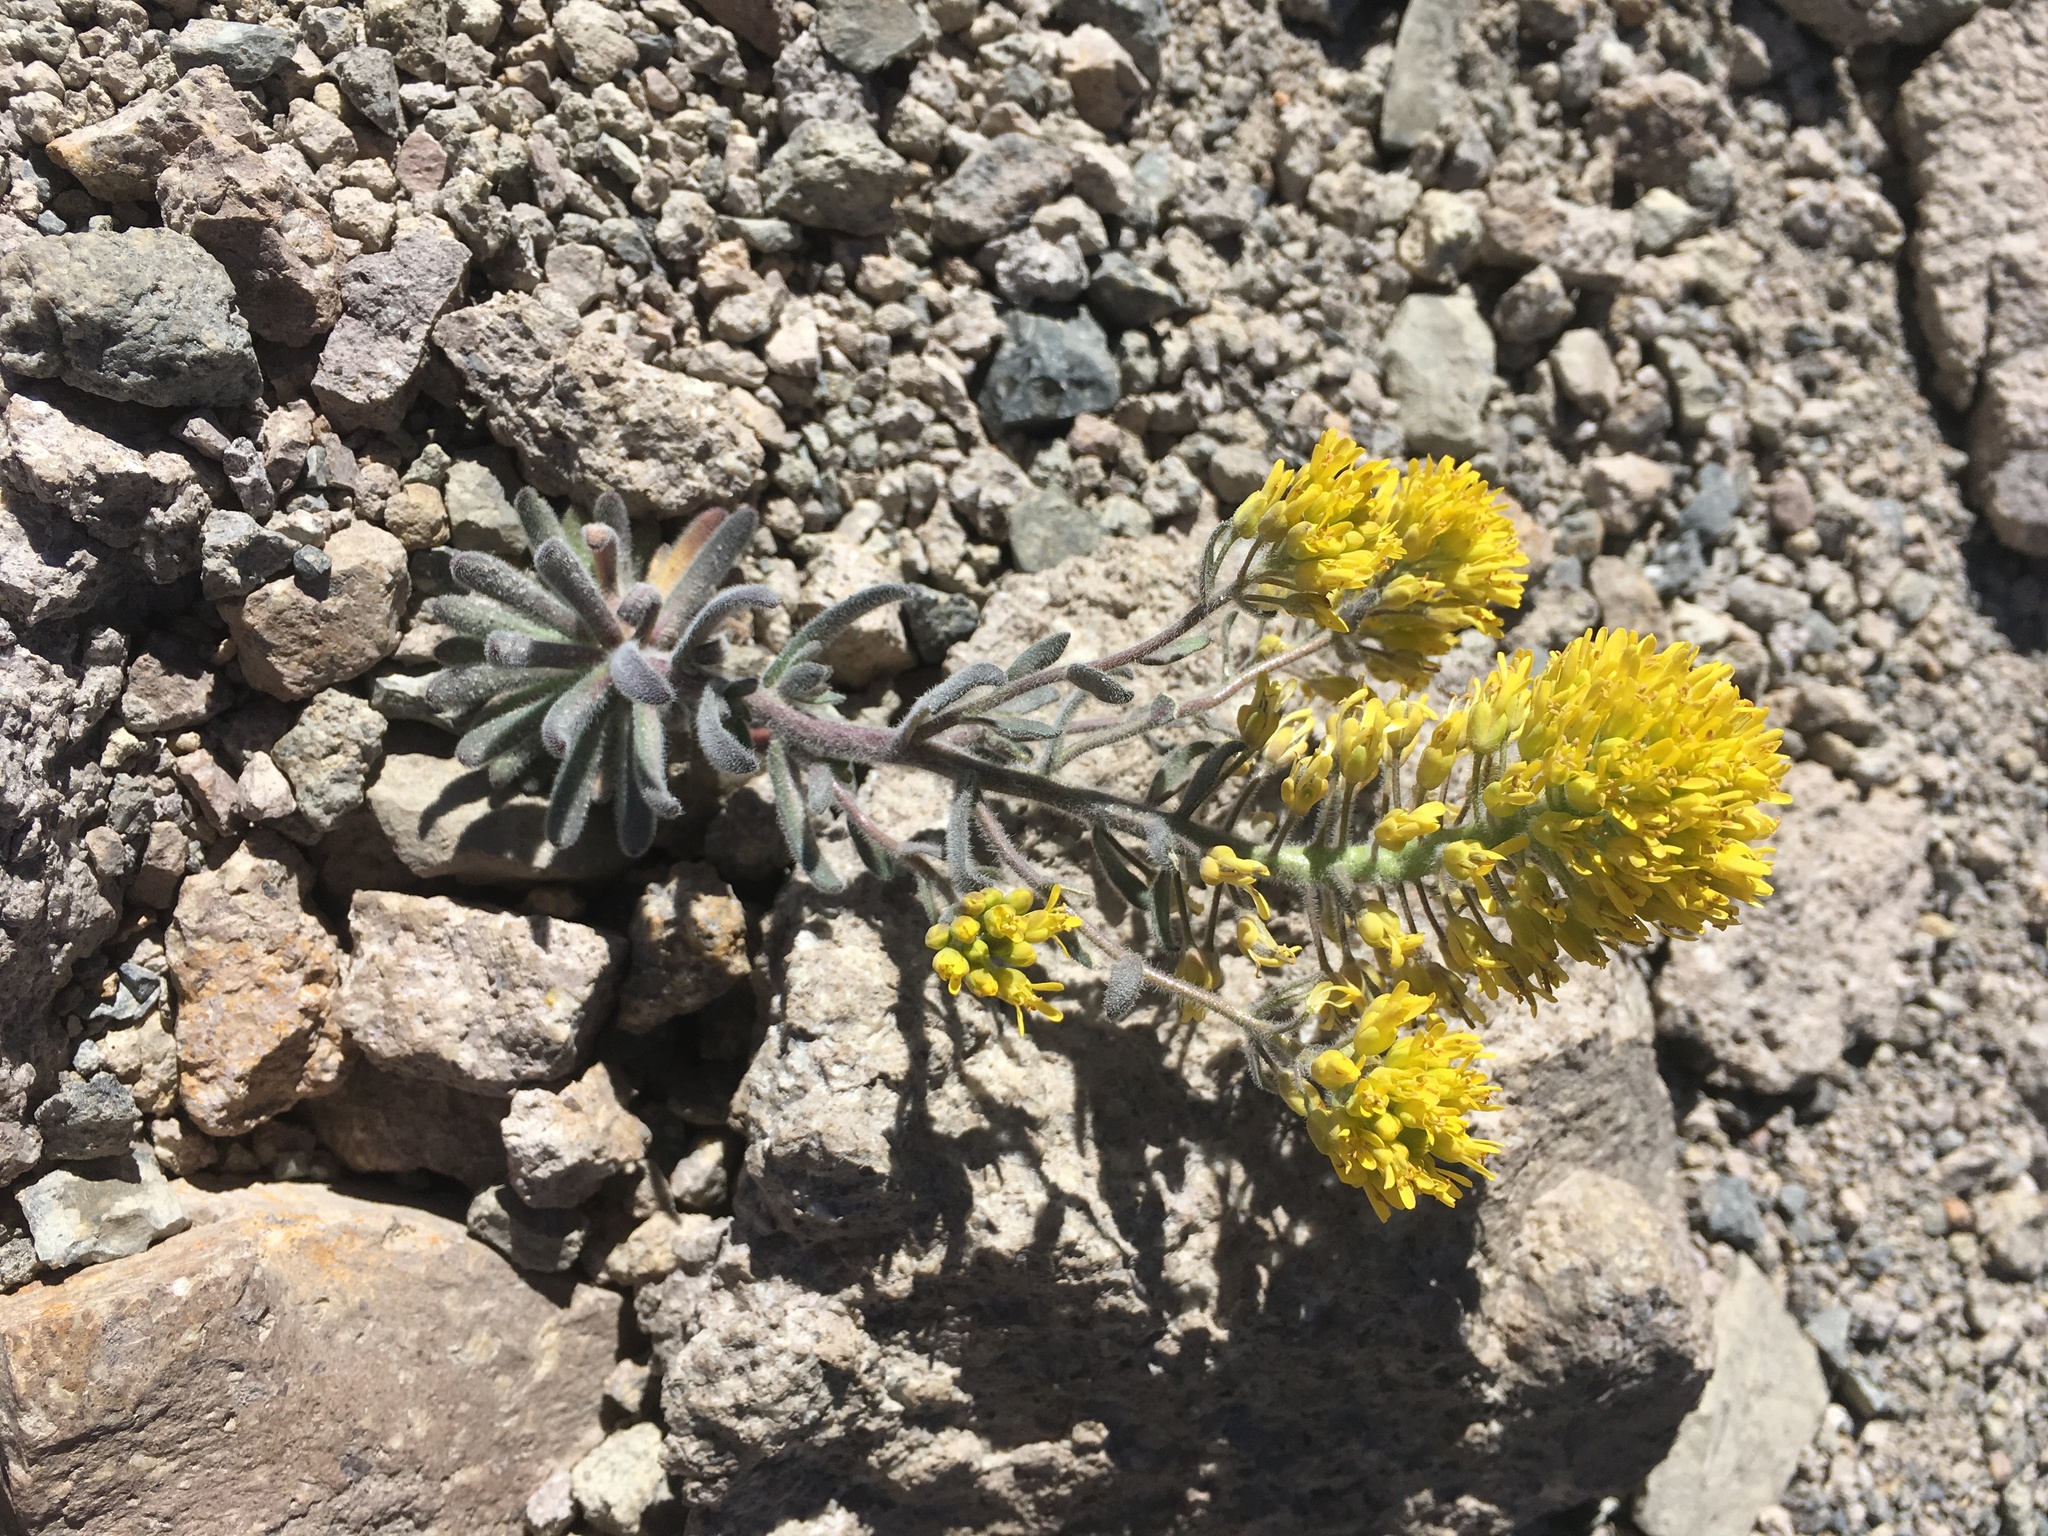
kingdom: Plantae
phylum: Tracheophyta
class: Magnoliopsida
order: Brassicales
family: Brassicaceae
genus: Draba
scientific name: Draba aureola
